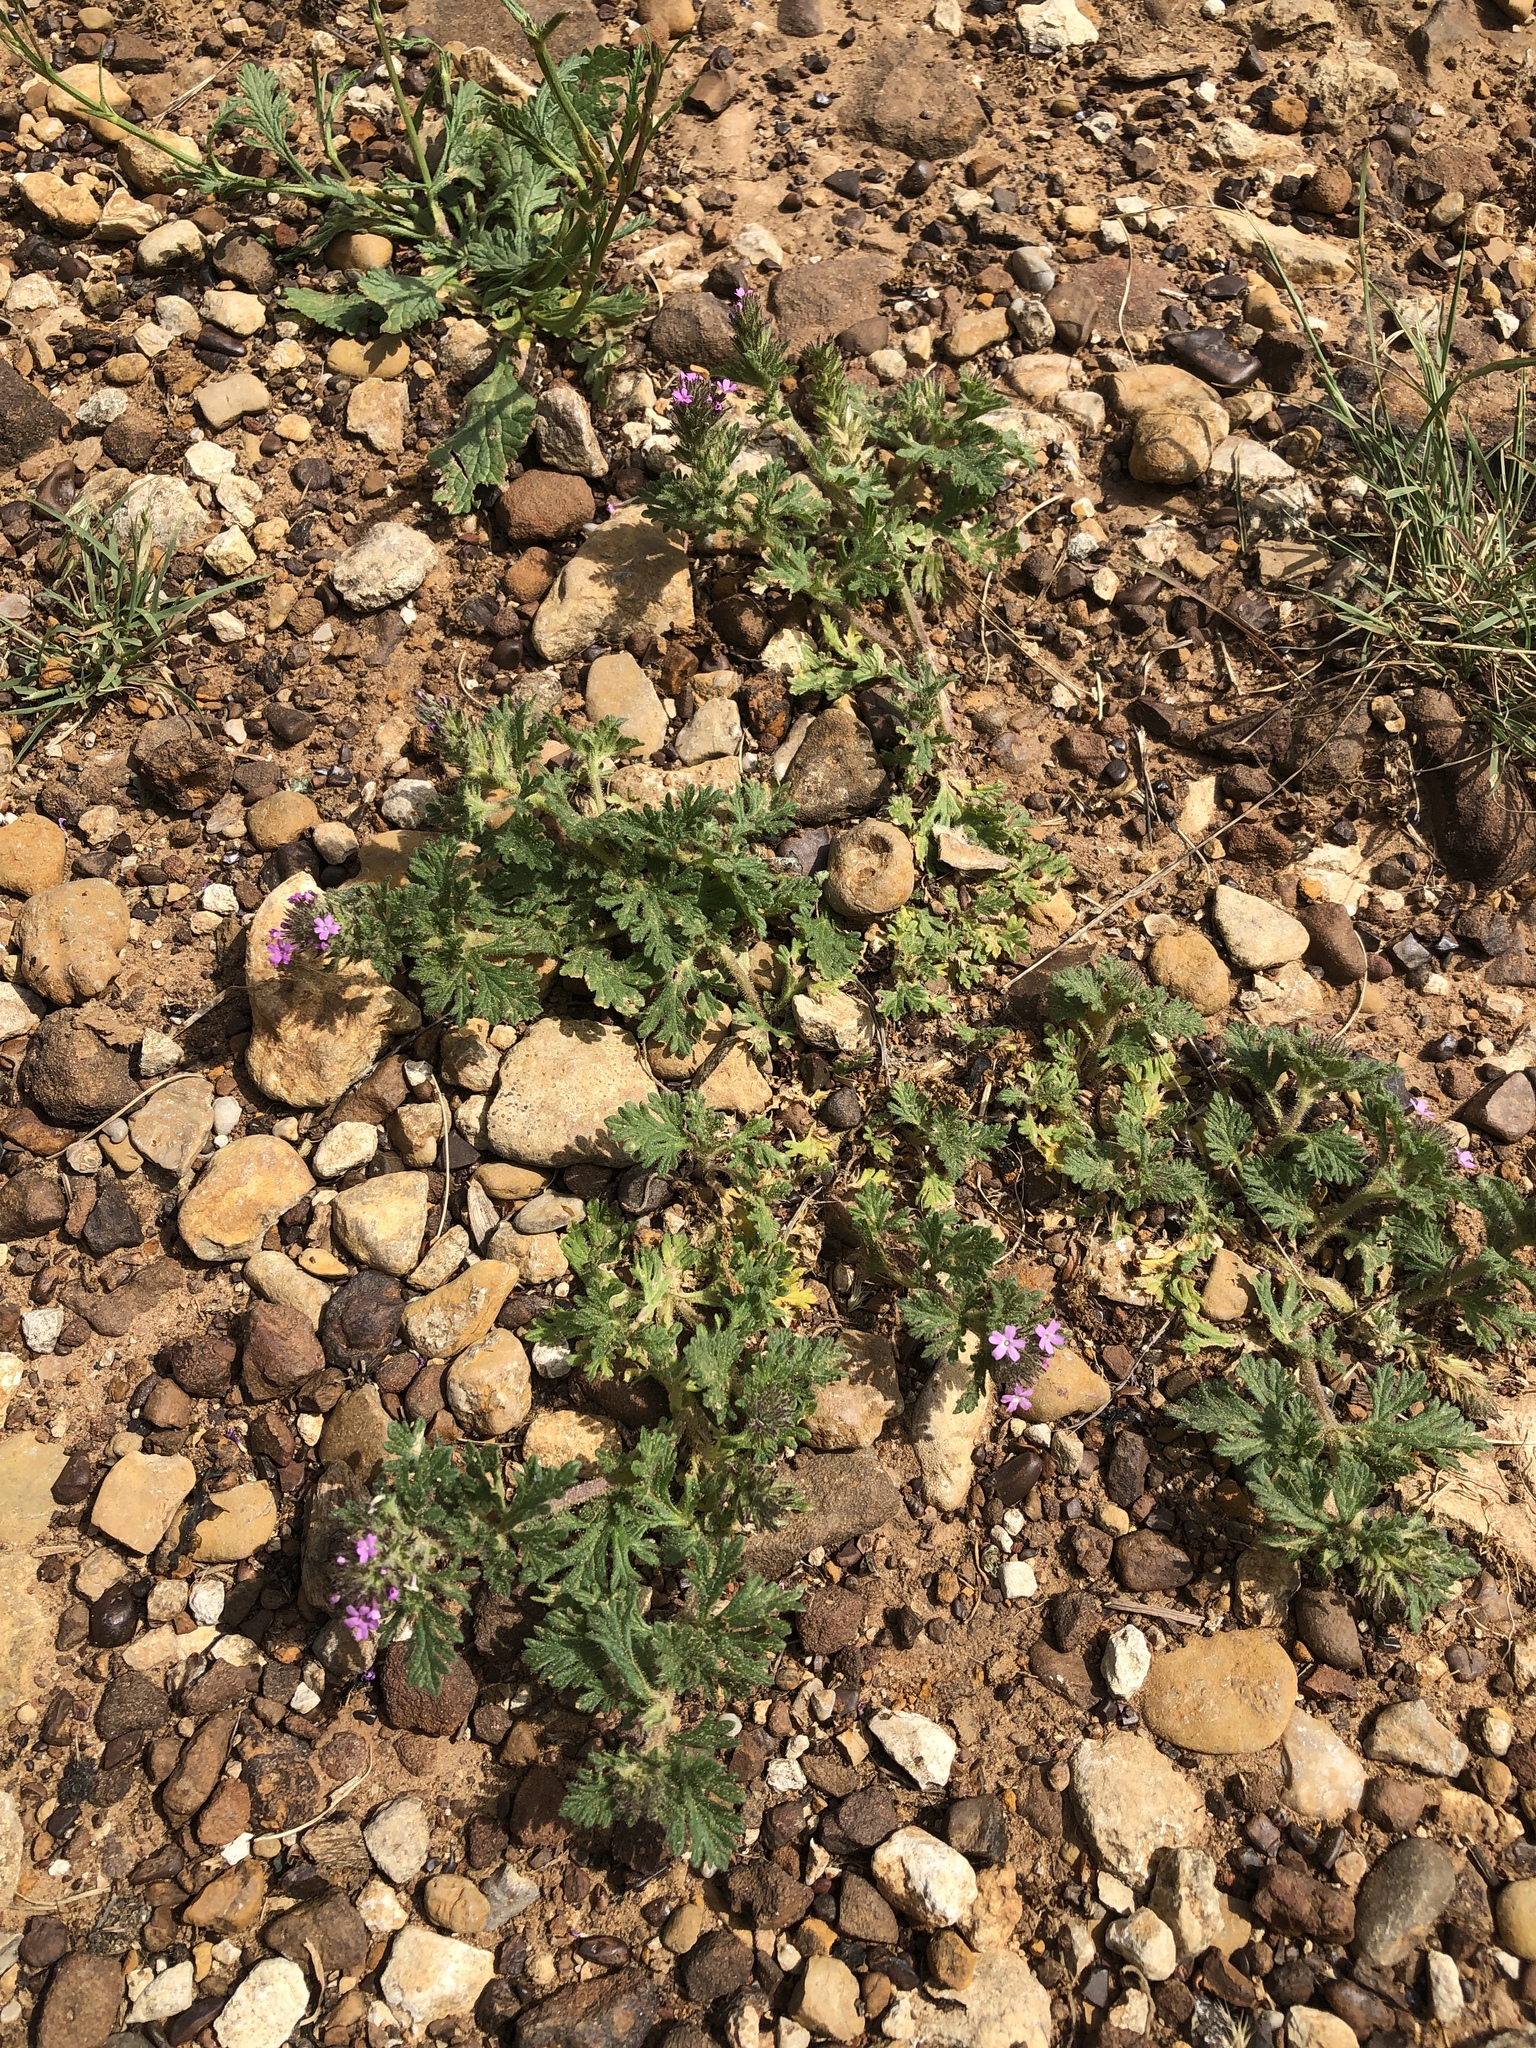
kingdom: Plantae
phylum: Tracheophyta
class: Magnoliopsida
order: Lamiales
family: Verbenaceae
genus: Verbena
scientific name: Verbena pumila
